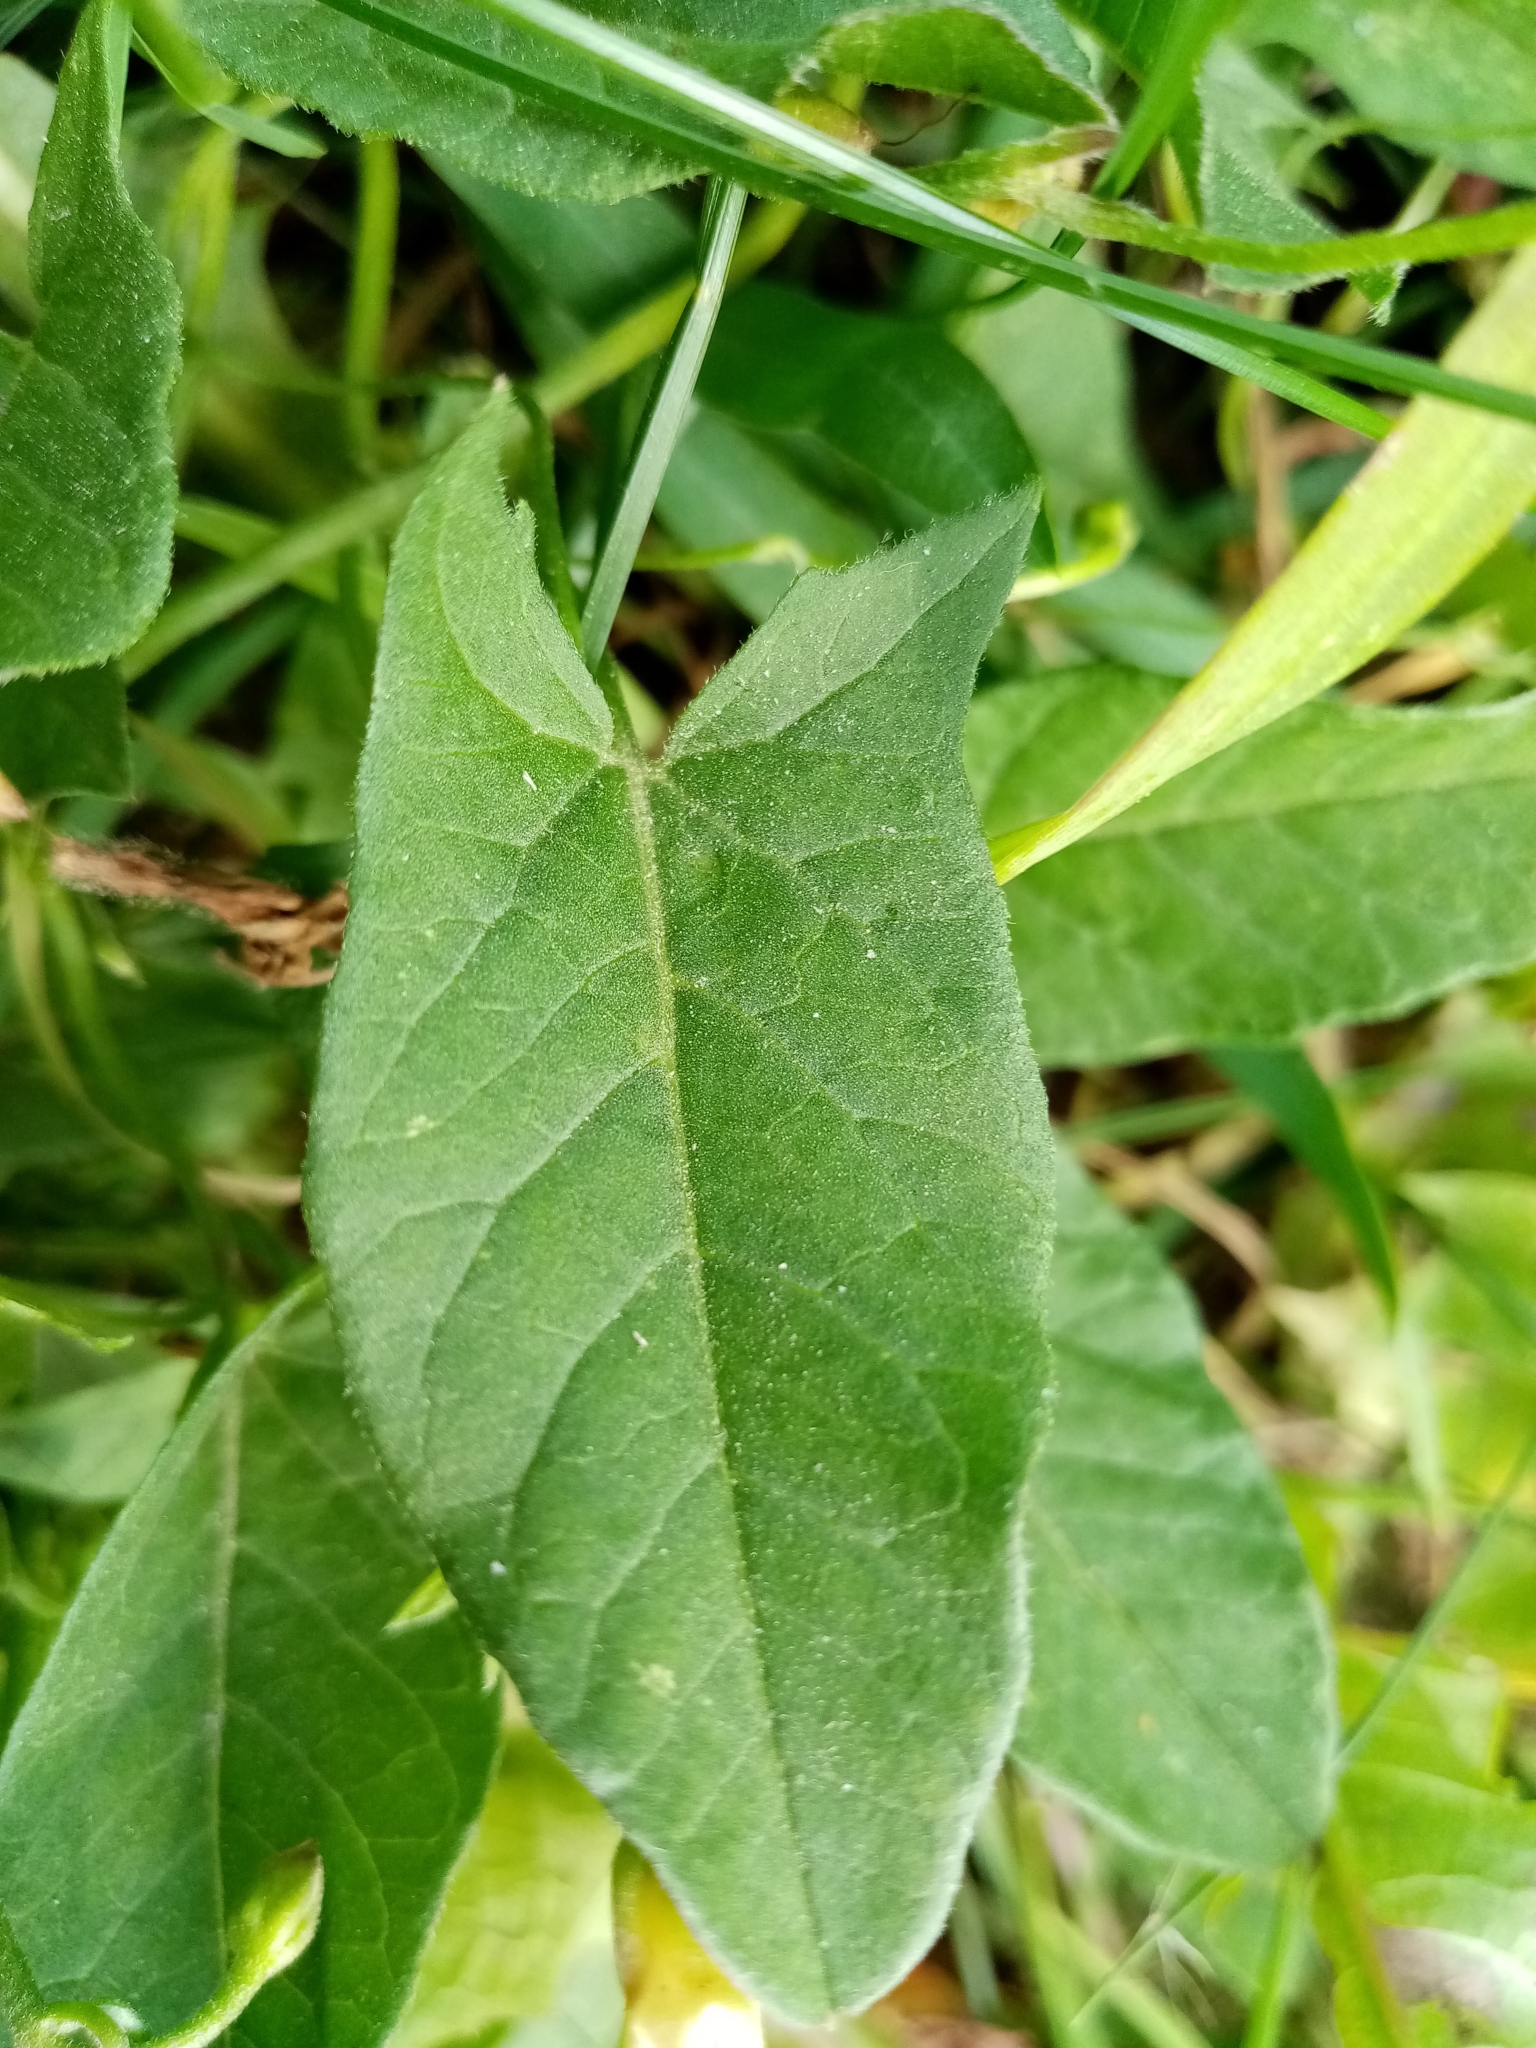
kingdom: Plantae
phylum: Tracheophyta
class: Magnoliopsida
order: Solanales
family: Convolvulaceae
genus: Convolvulus
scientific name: Convolvulus arvensis
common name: Field bindweed
